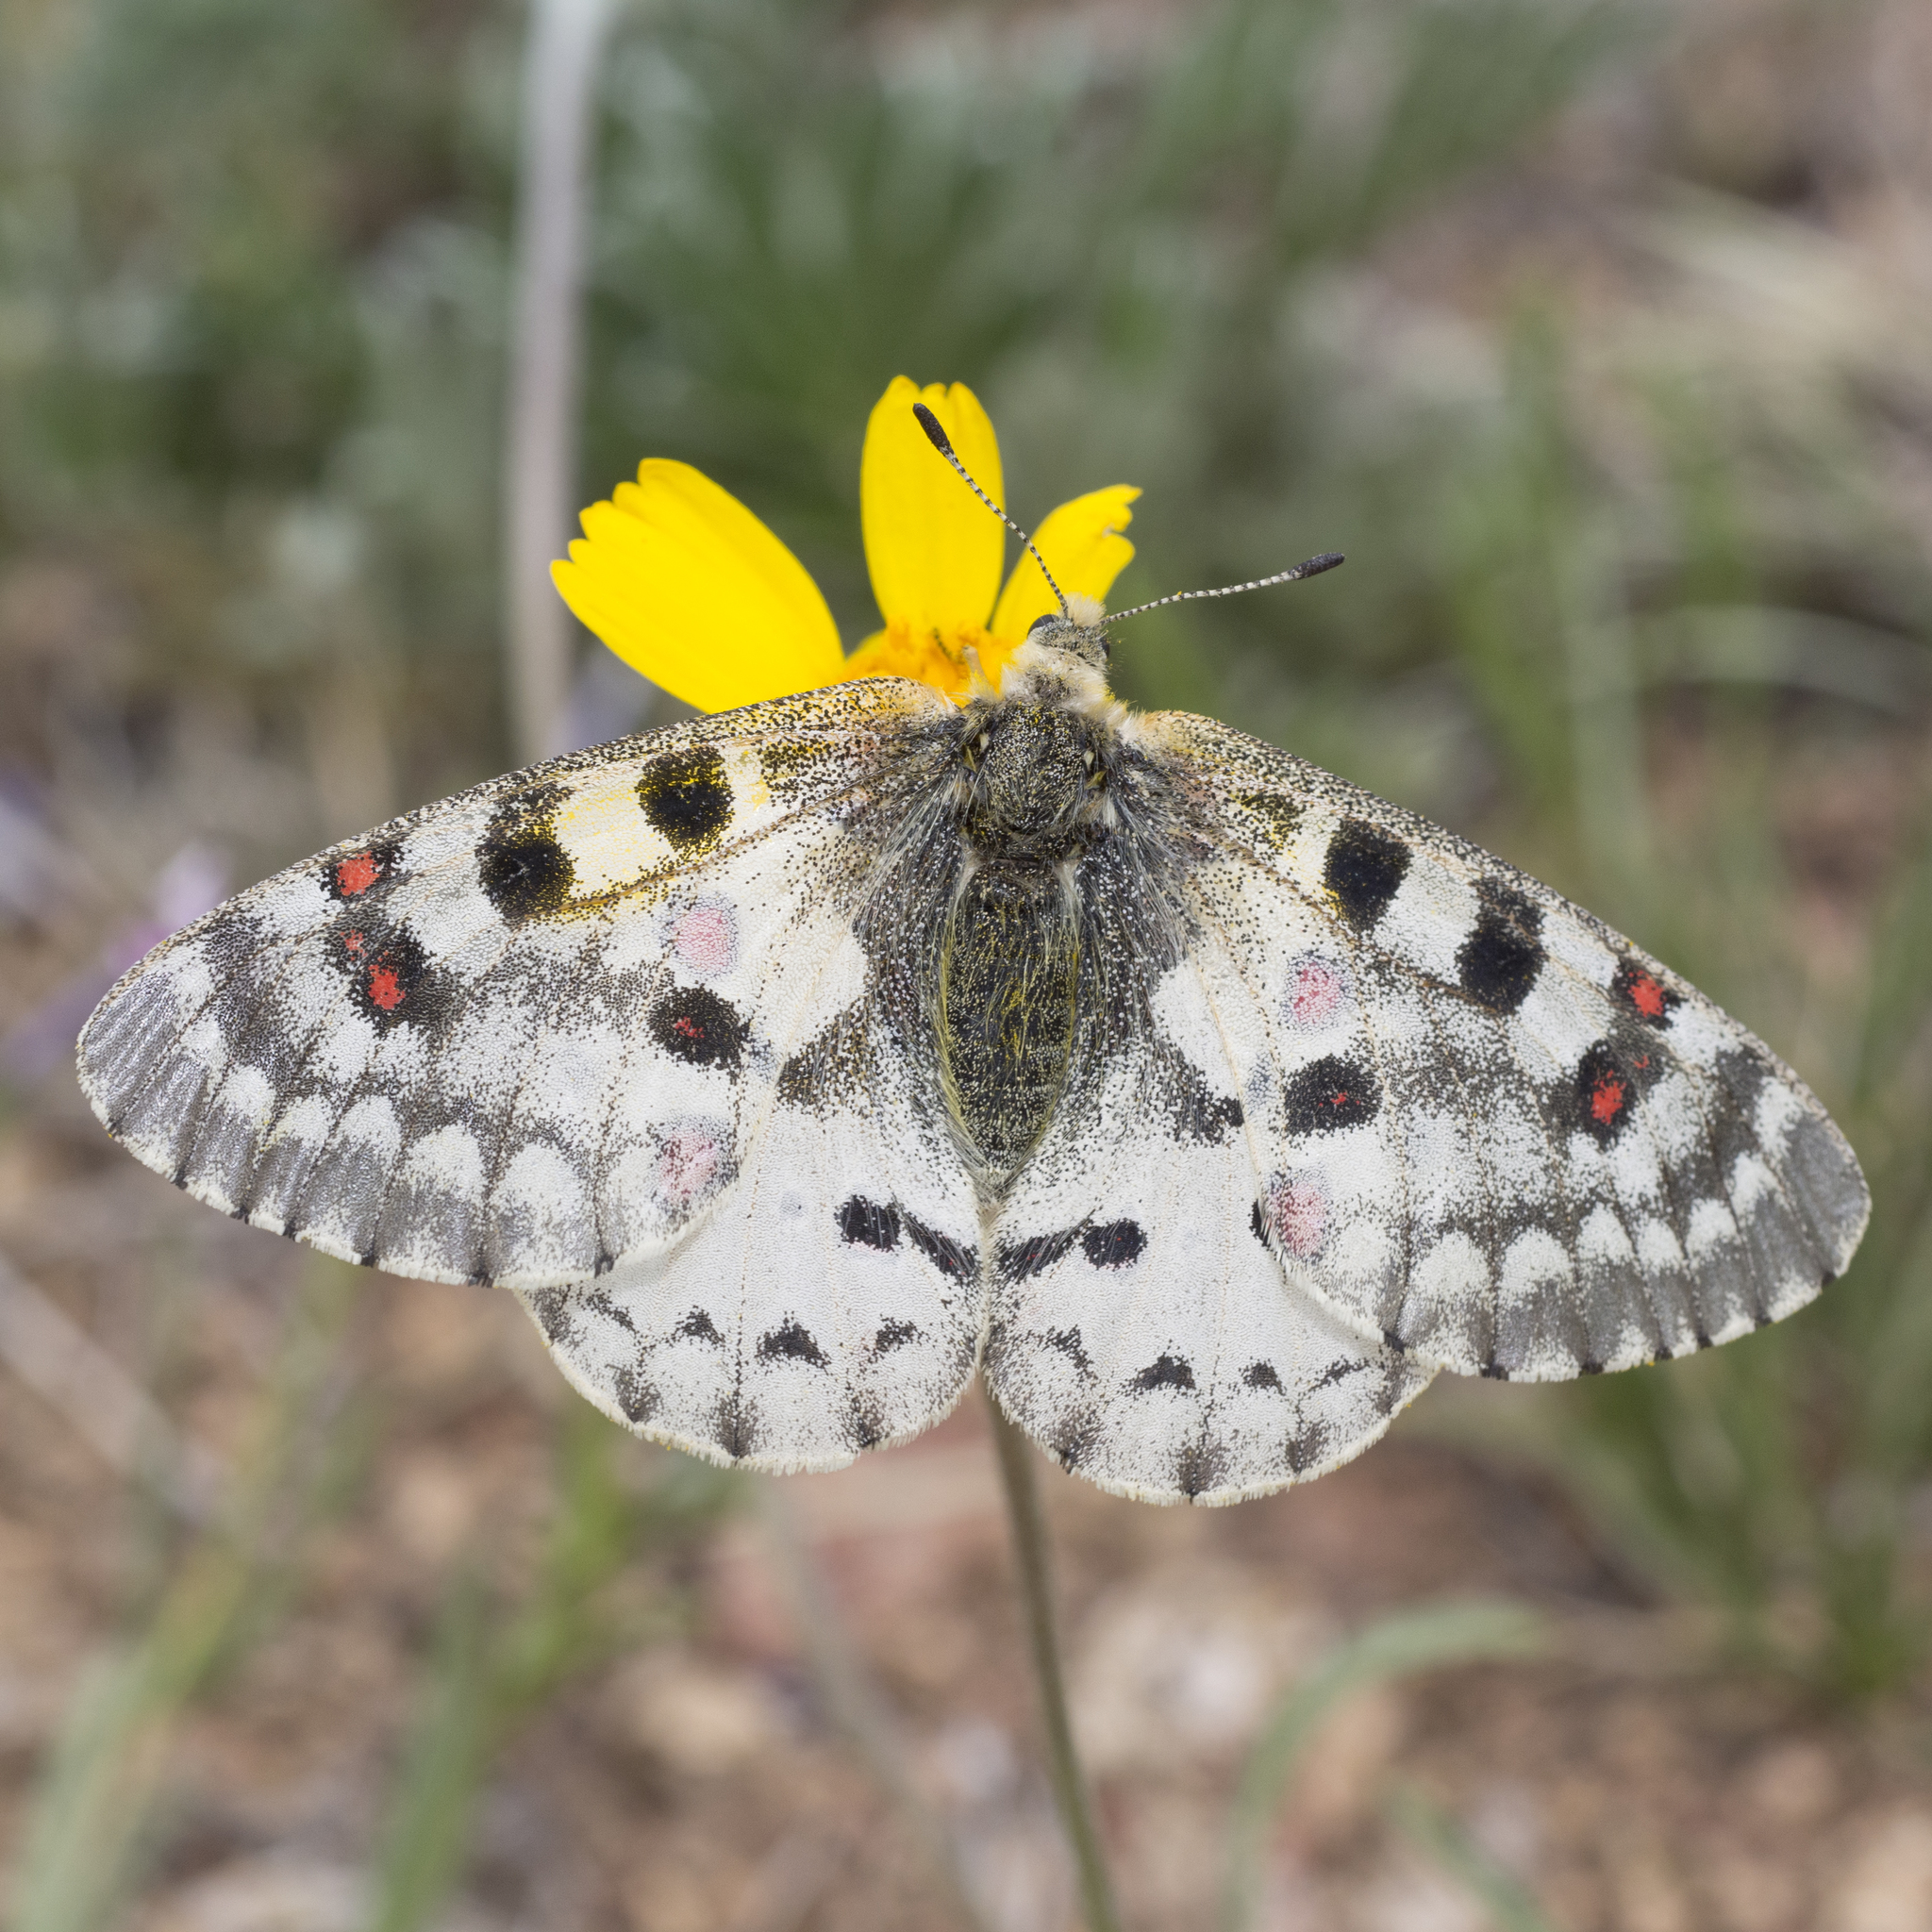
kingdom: Animalia
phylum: Arthropoda
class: Insecta
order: Lepidoptera
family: Papilionidae
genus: Parnassius
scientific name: Parnassius smintheus
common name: Mountain parnassian
